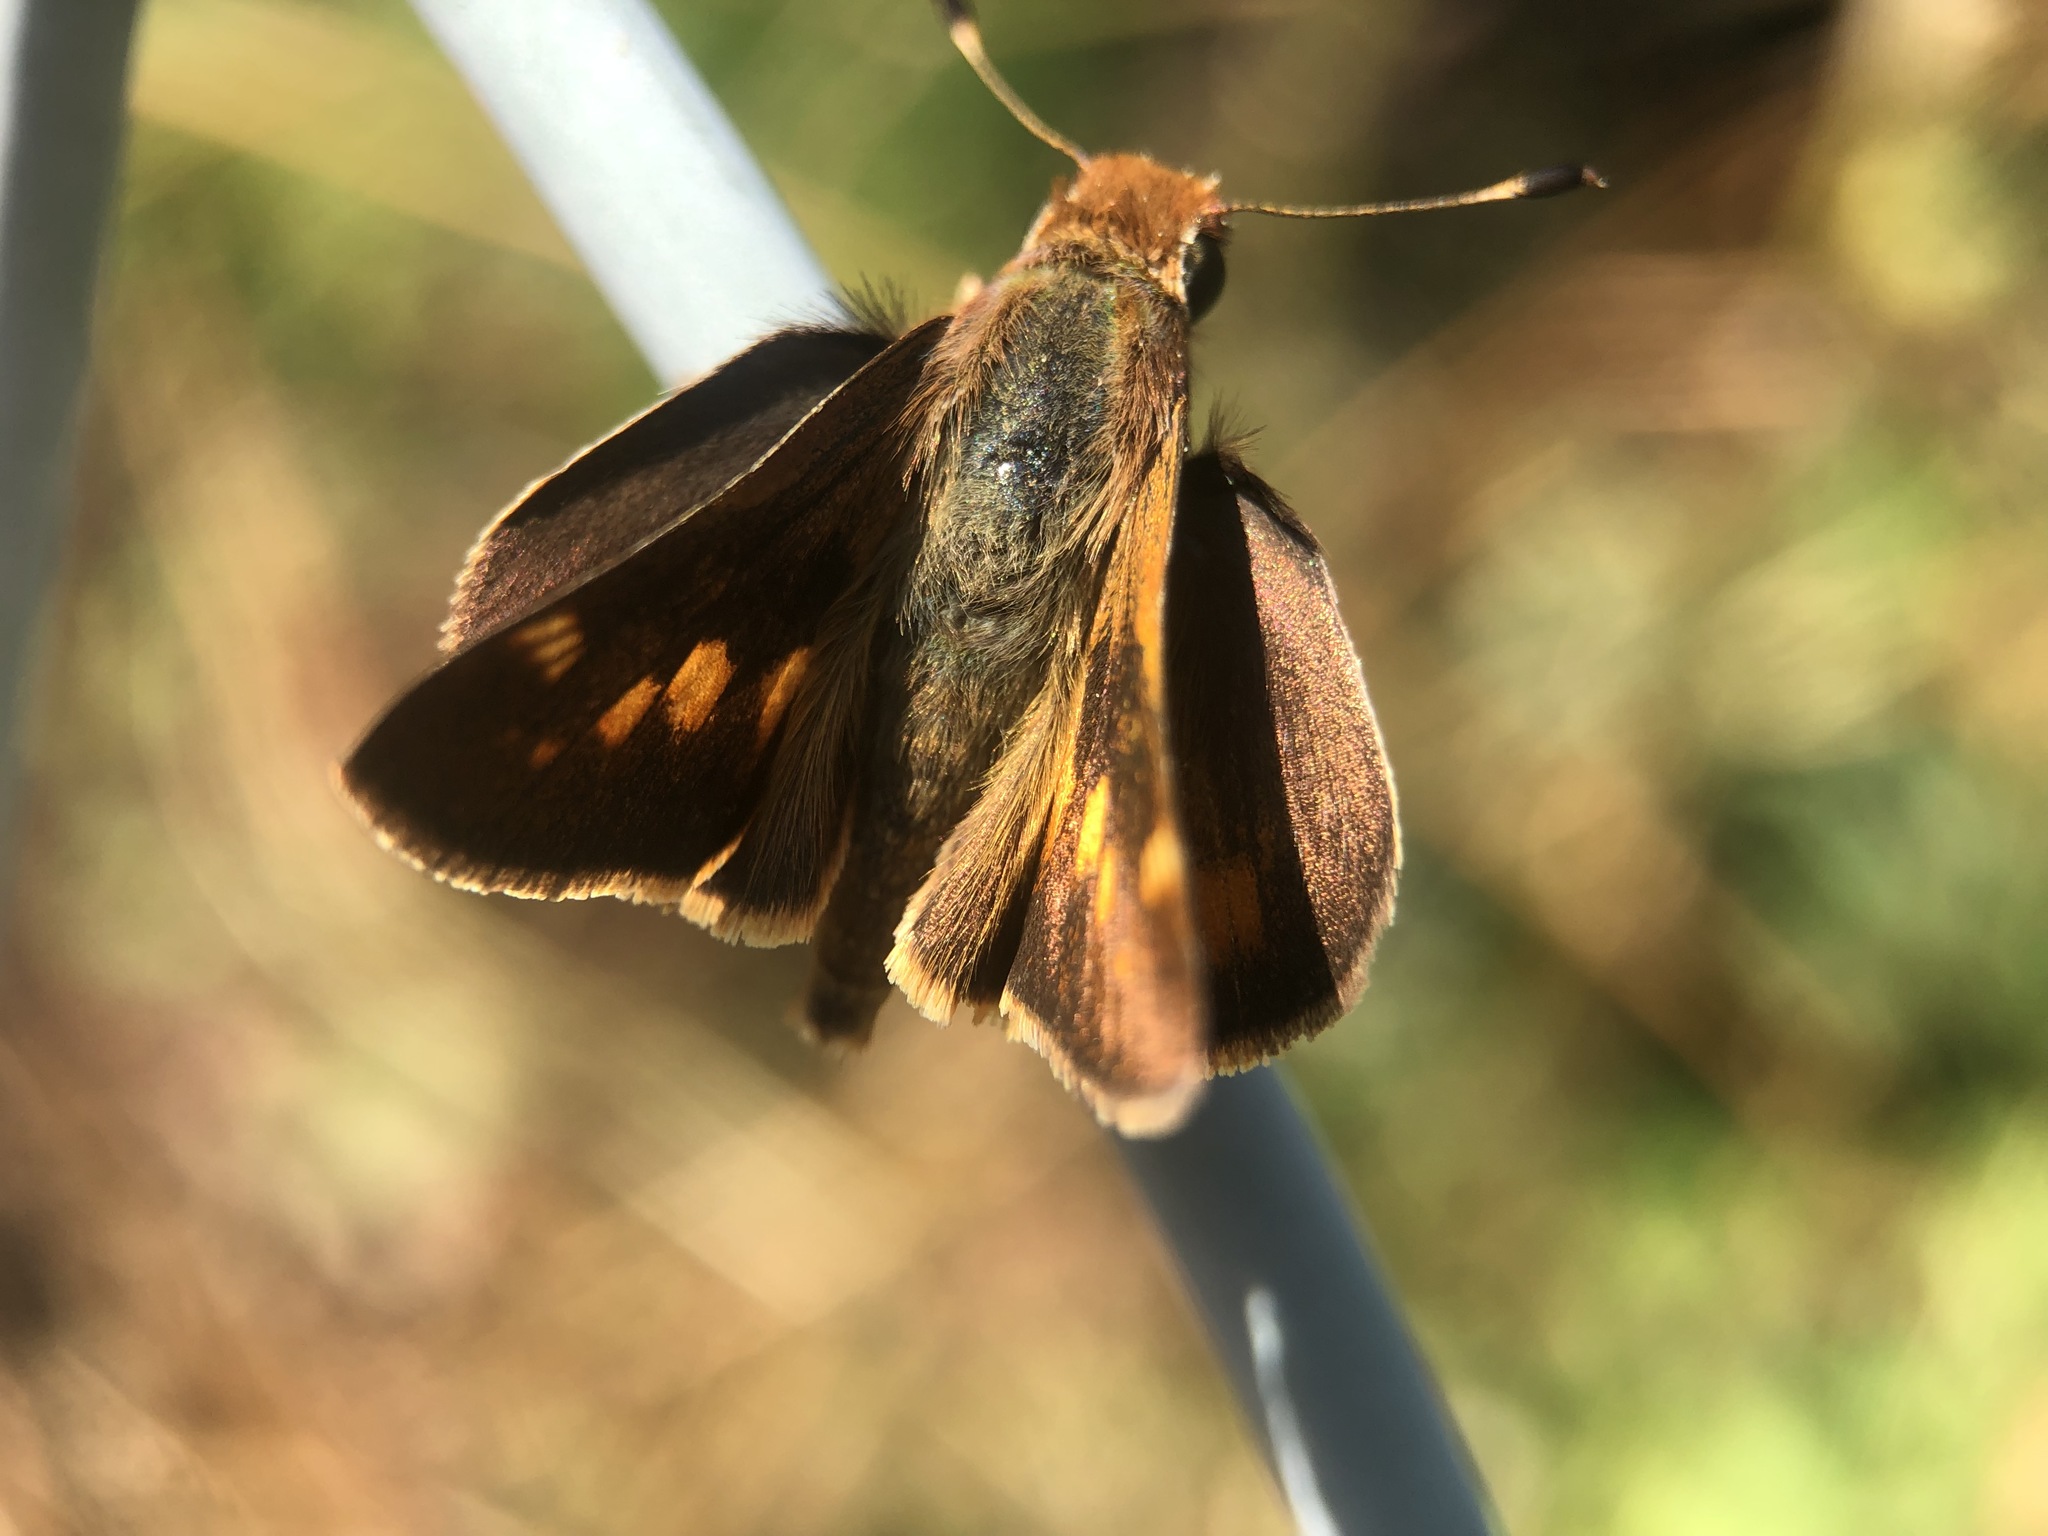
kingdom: Animalia
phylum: Arthropoda
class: Insecta
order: Lepidoptera
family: Hesperiidae
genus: Lon
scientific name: Lon melane
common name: Umber skipper
